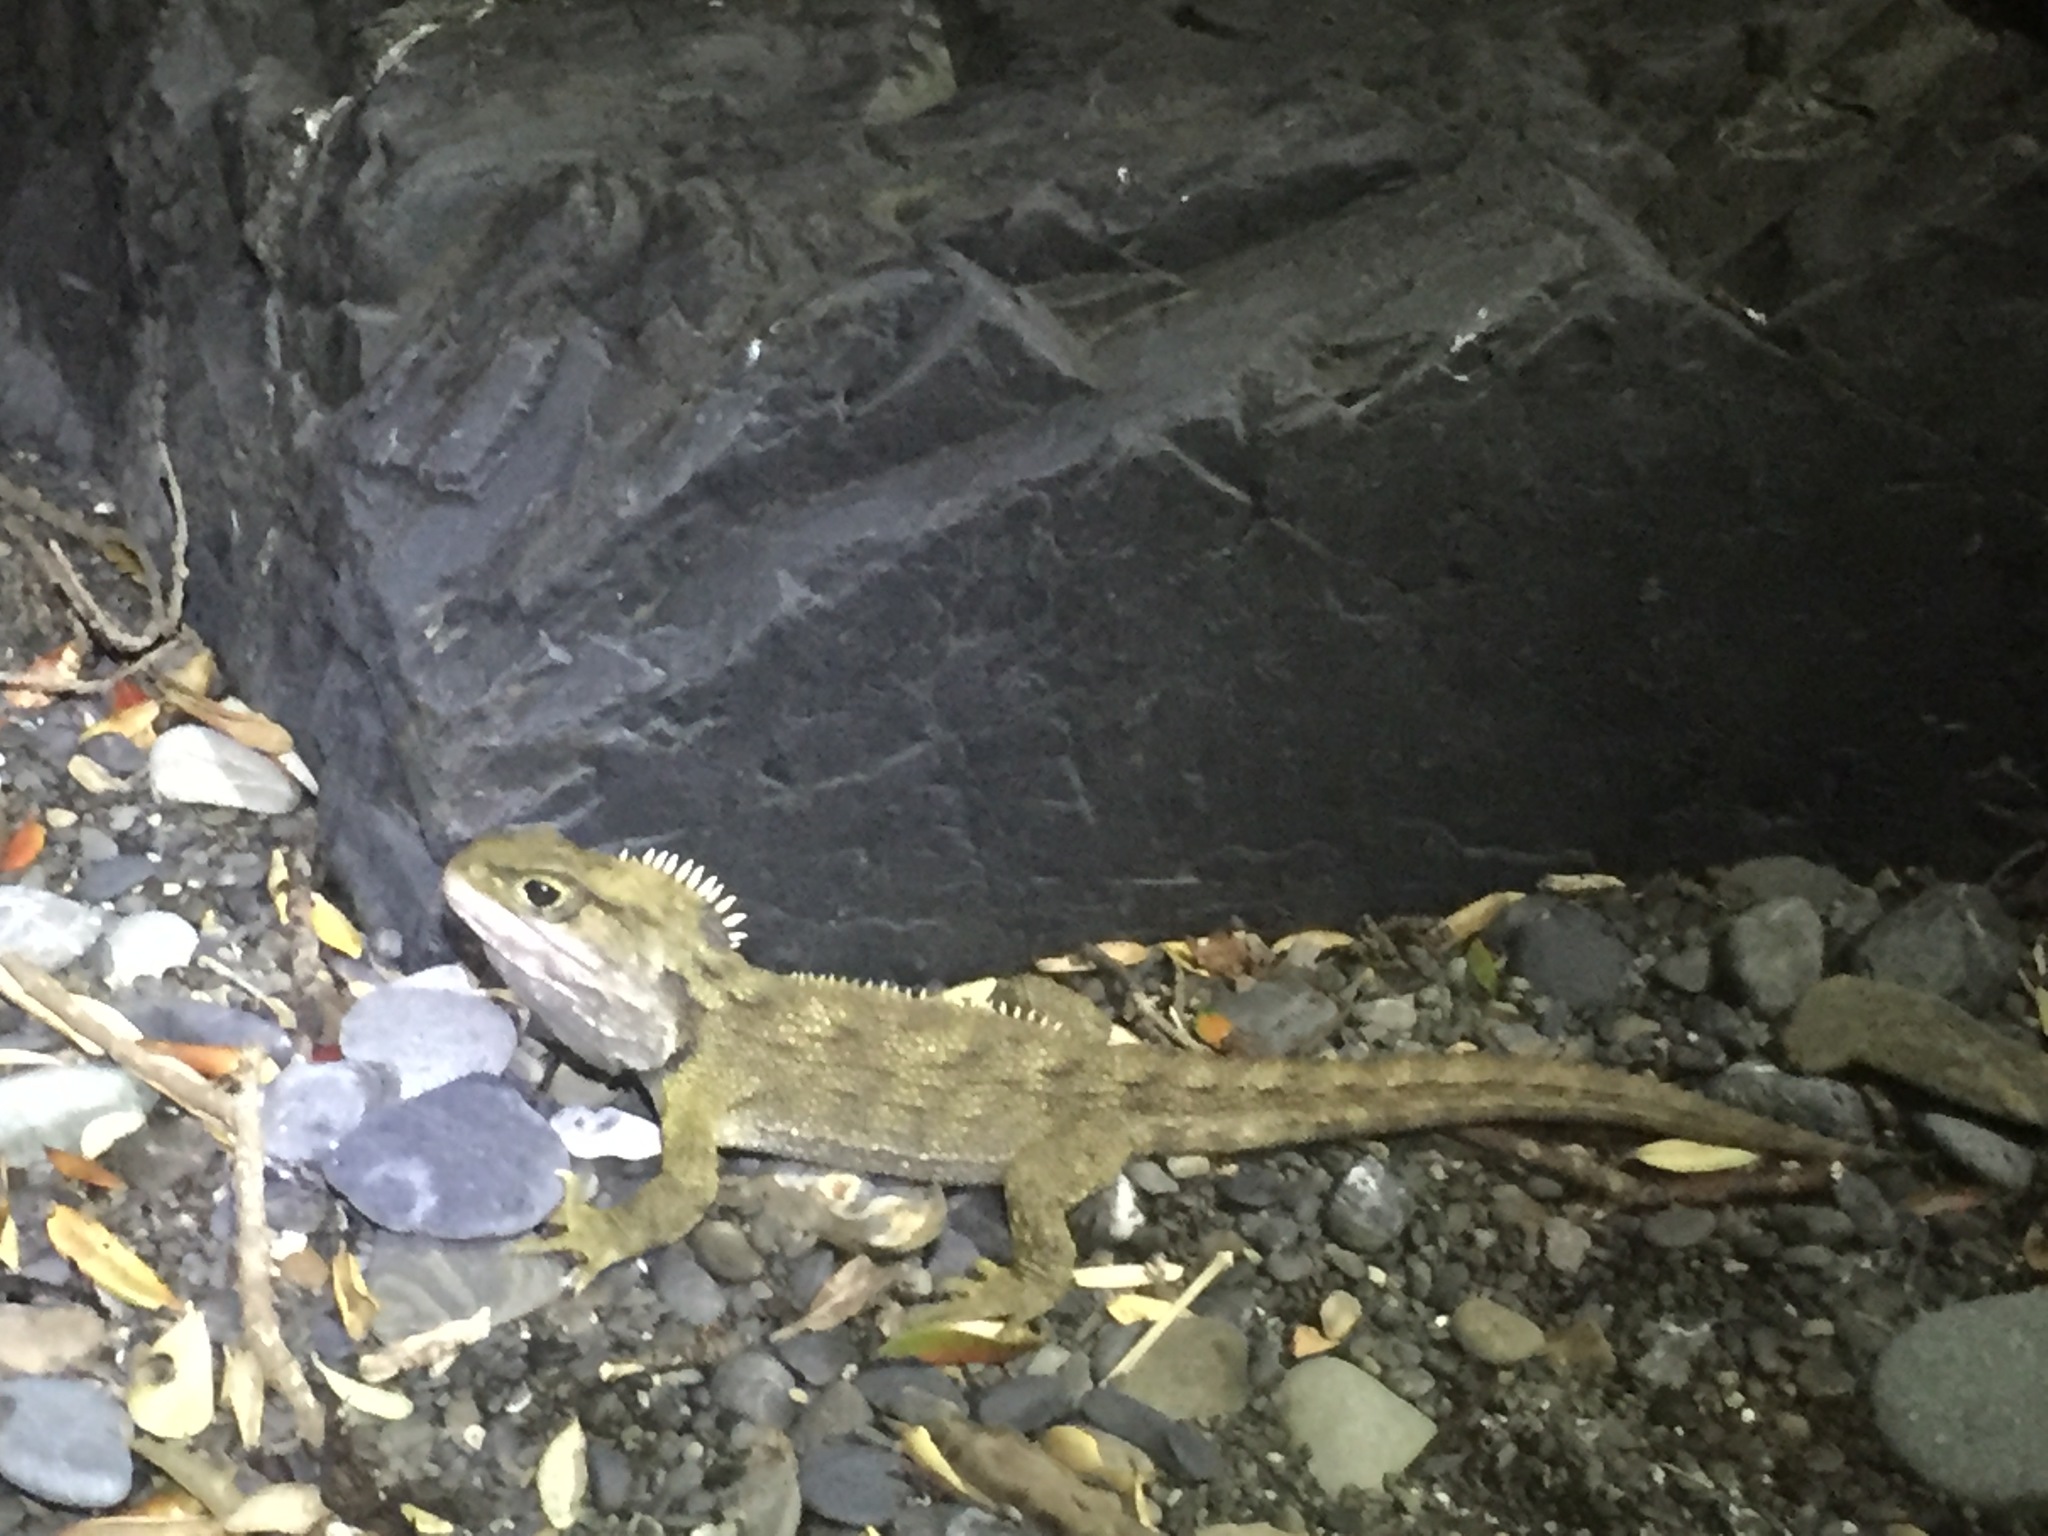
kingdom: Animalia
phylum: Chordata
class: Sphenodontia
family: Sphenodontidae
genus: Sphenodon
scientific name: Sphenodon punctatus
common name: Tuatara
